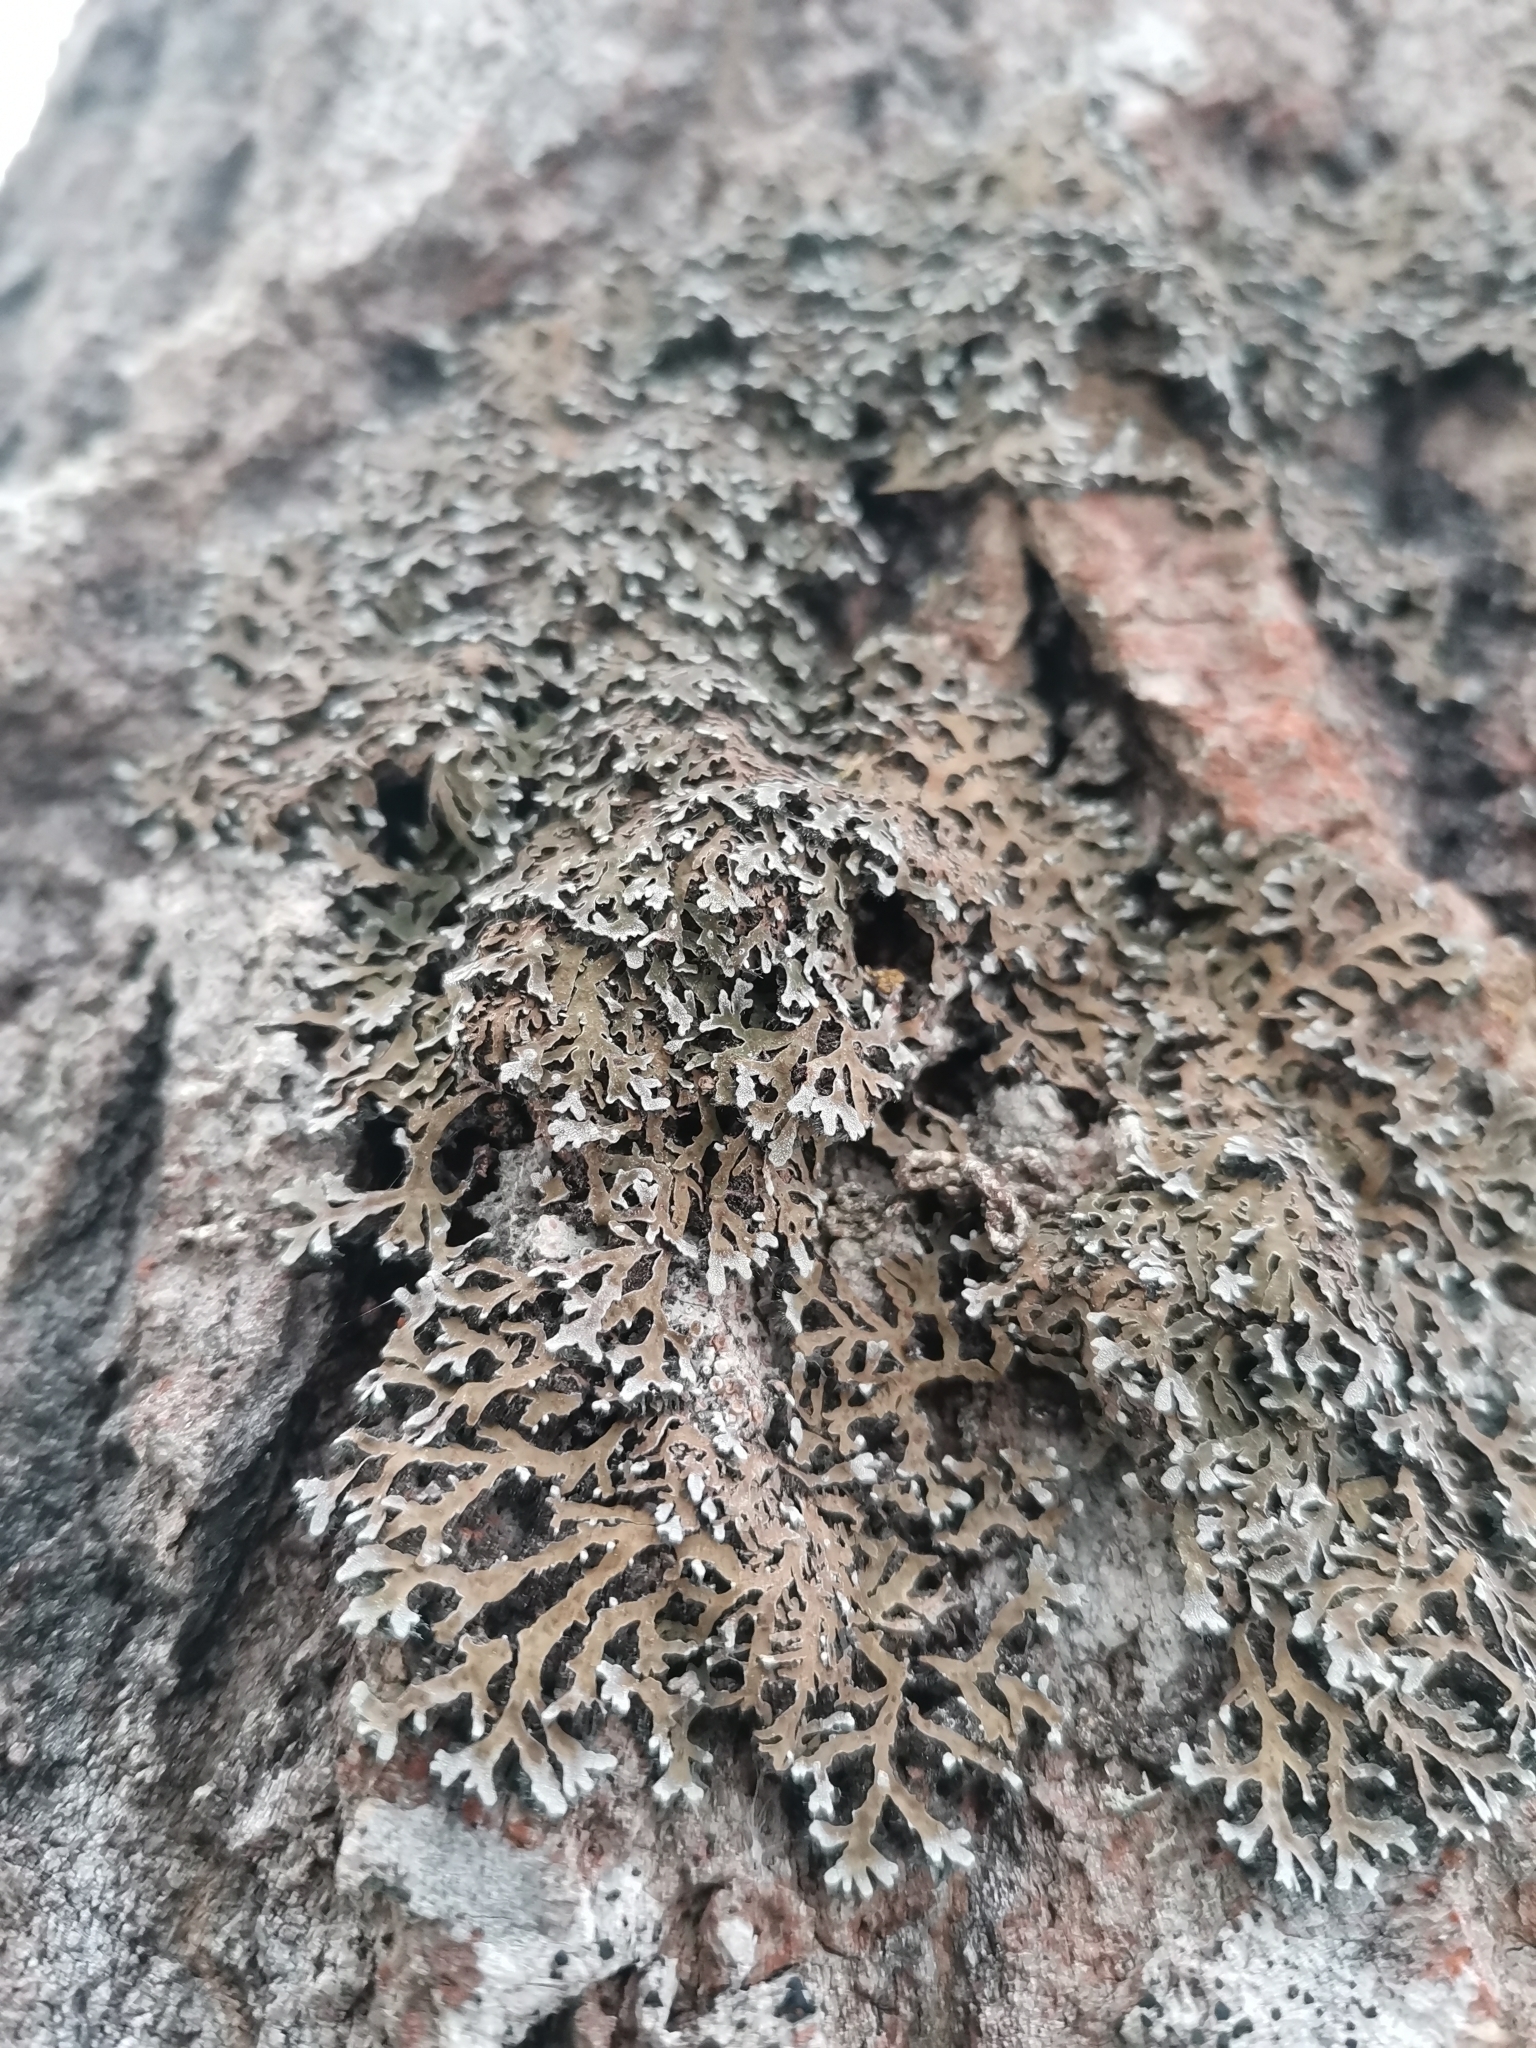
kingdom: Fungi
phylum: Ascomycota
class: Lecanoromycetes
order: Caliciales
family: Physciaceae
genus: Physconia
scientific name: Physconia distorta
